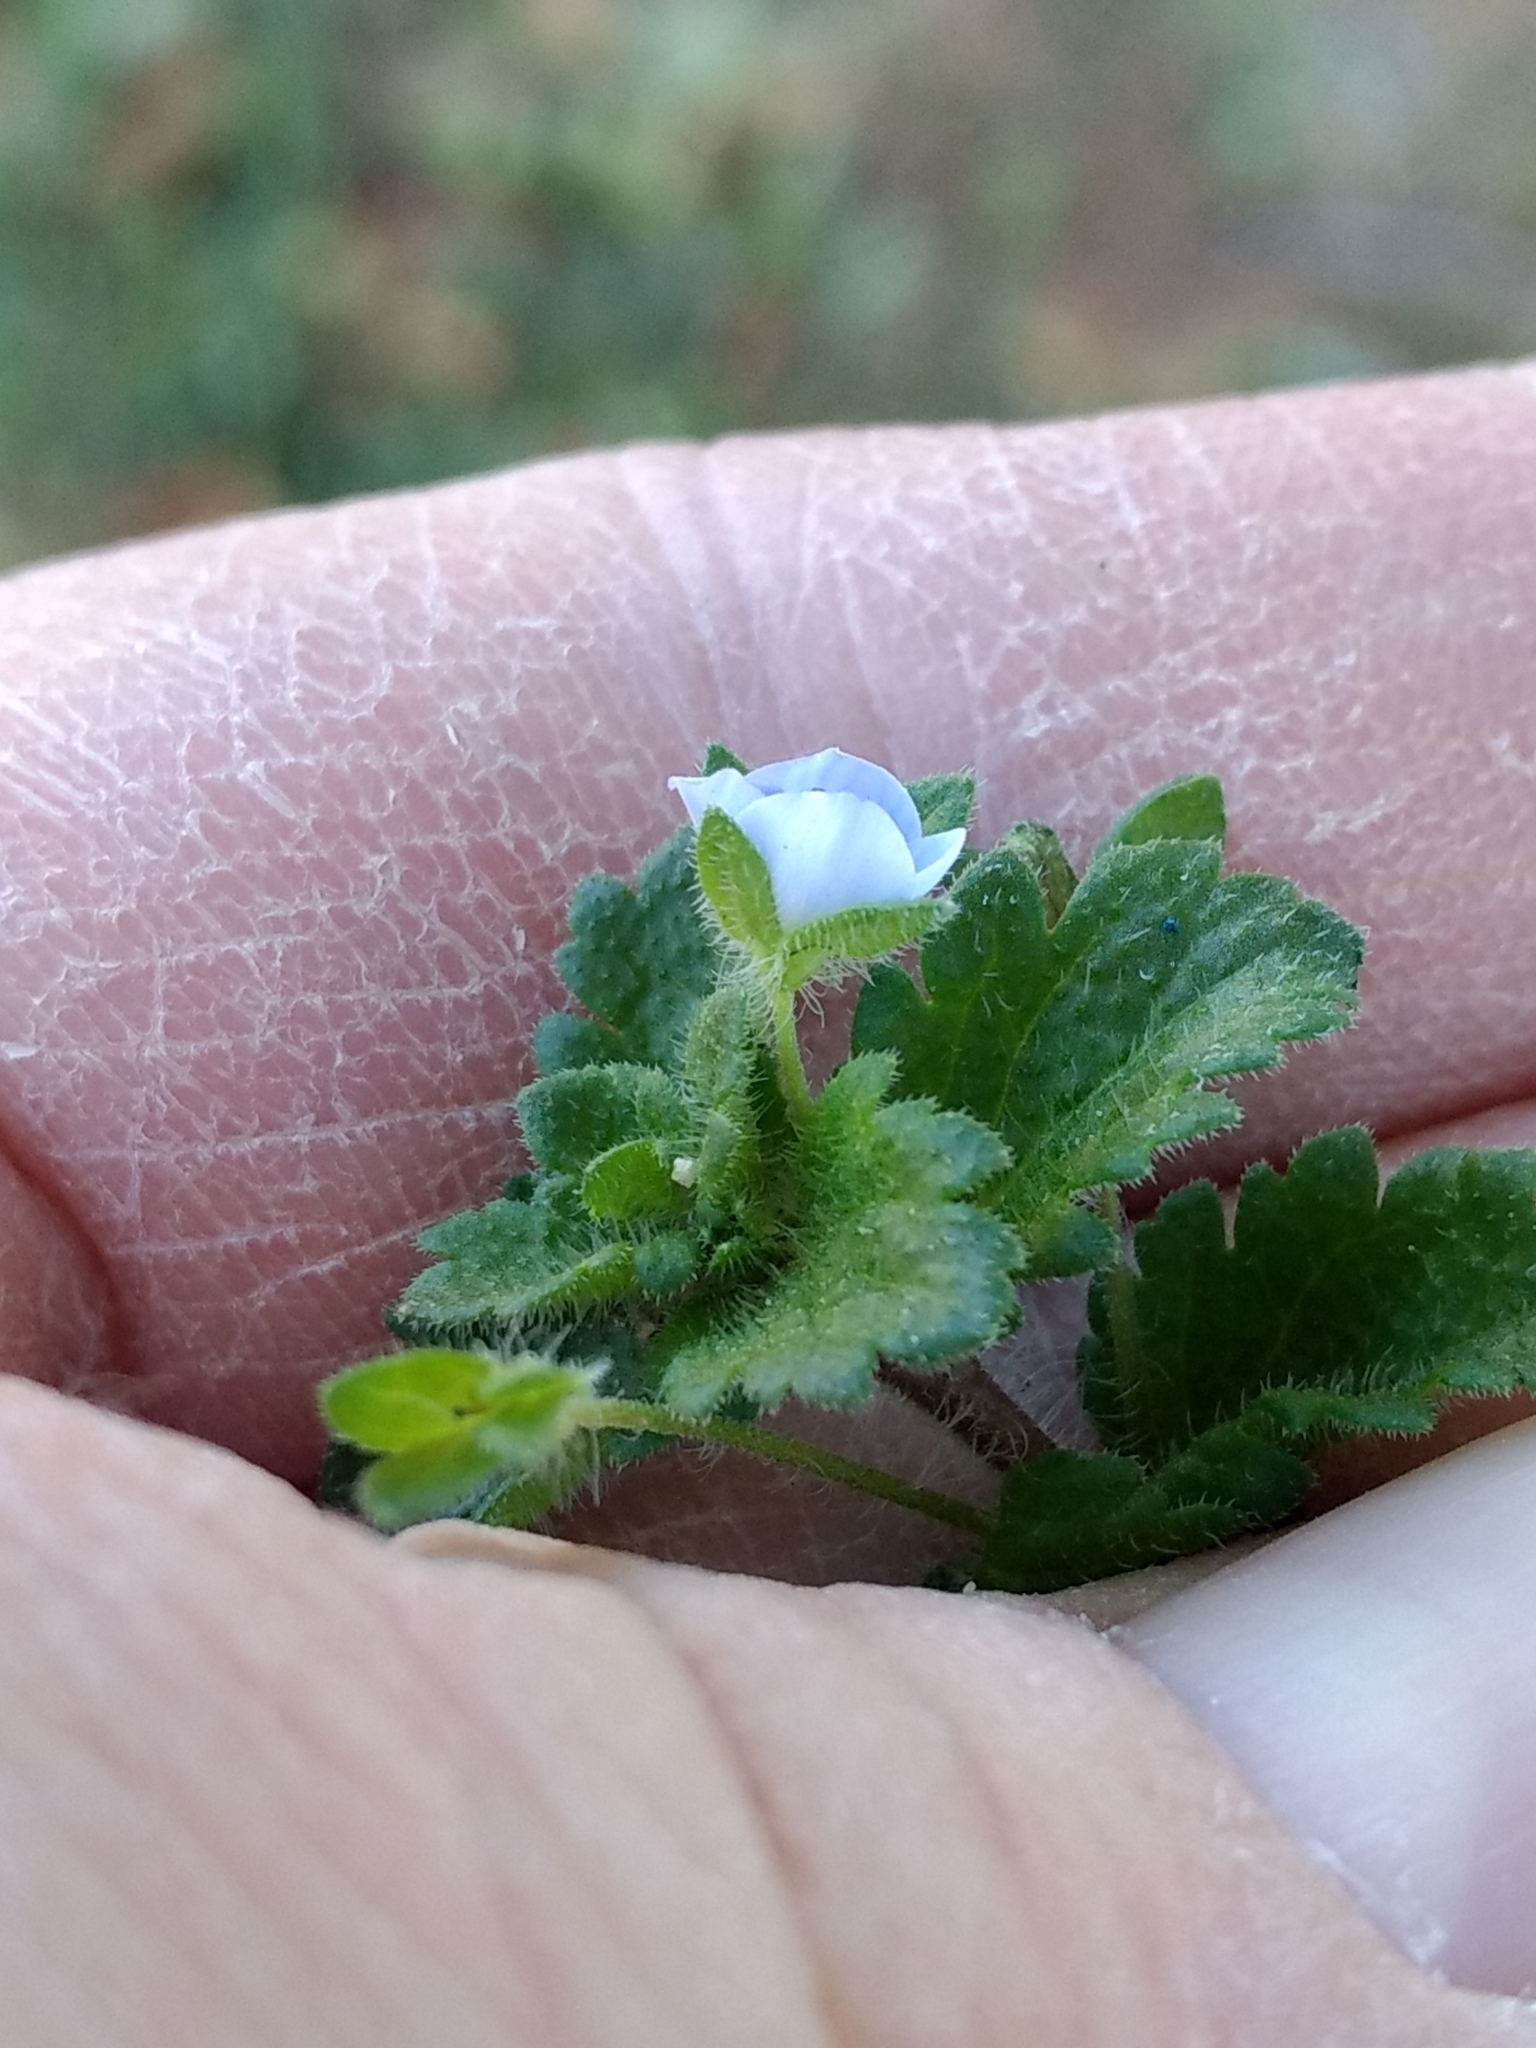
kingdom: Plantae
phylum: Tracheophyta
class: Magnoliopsida
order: Lamiales
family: Plantaginaceae
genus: Veronica
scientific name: Veronica persica
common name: Common field-speedwell
